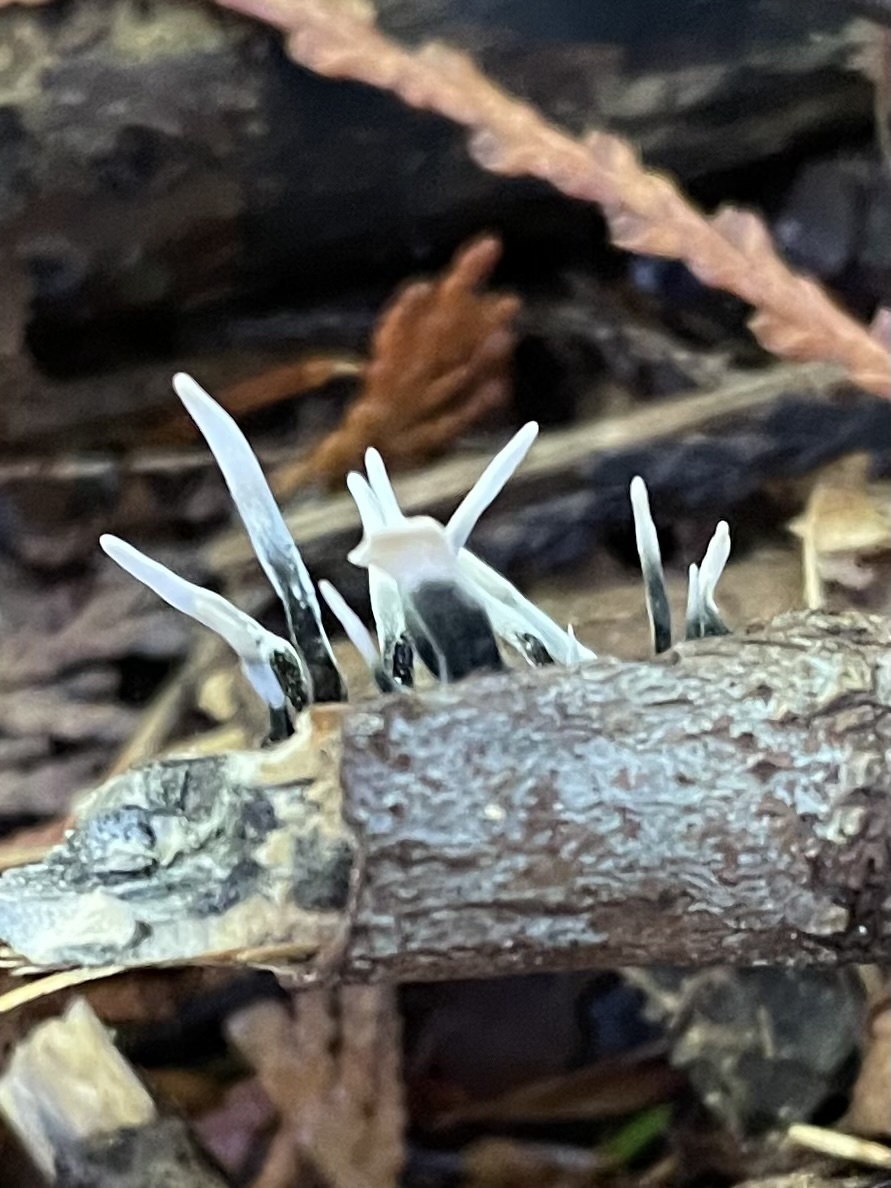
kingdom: Fungi
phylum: Ascomycota
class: Sordariomycetes
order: Xylariales
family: Xylariaceae
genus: Xylaria
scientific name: Xylaria hypoxylon
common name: Candle-snuff fungus
